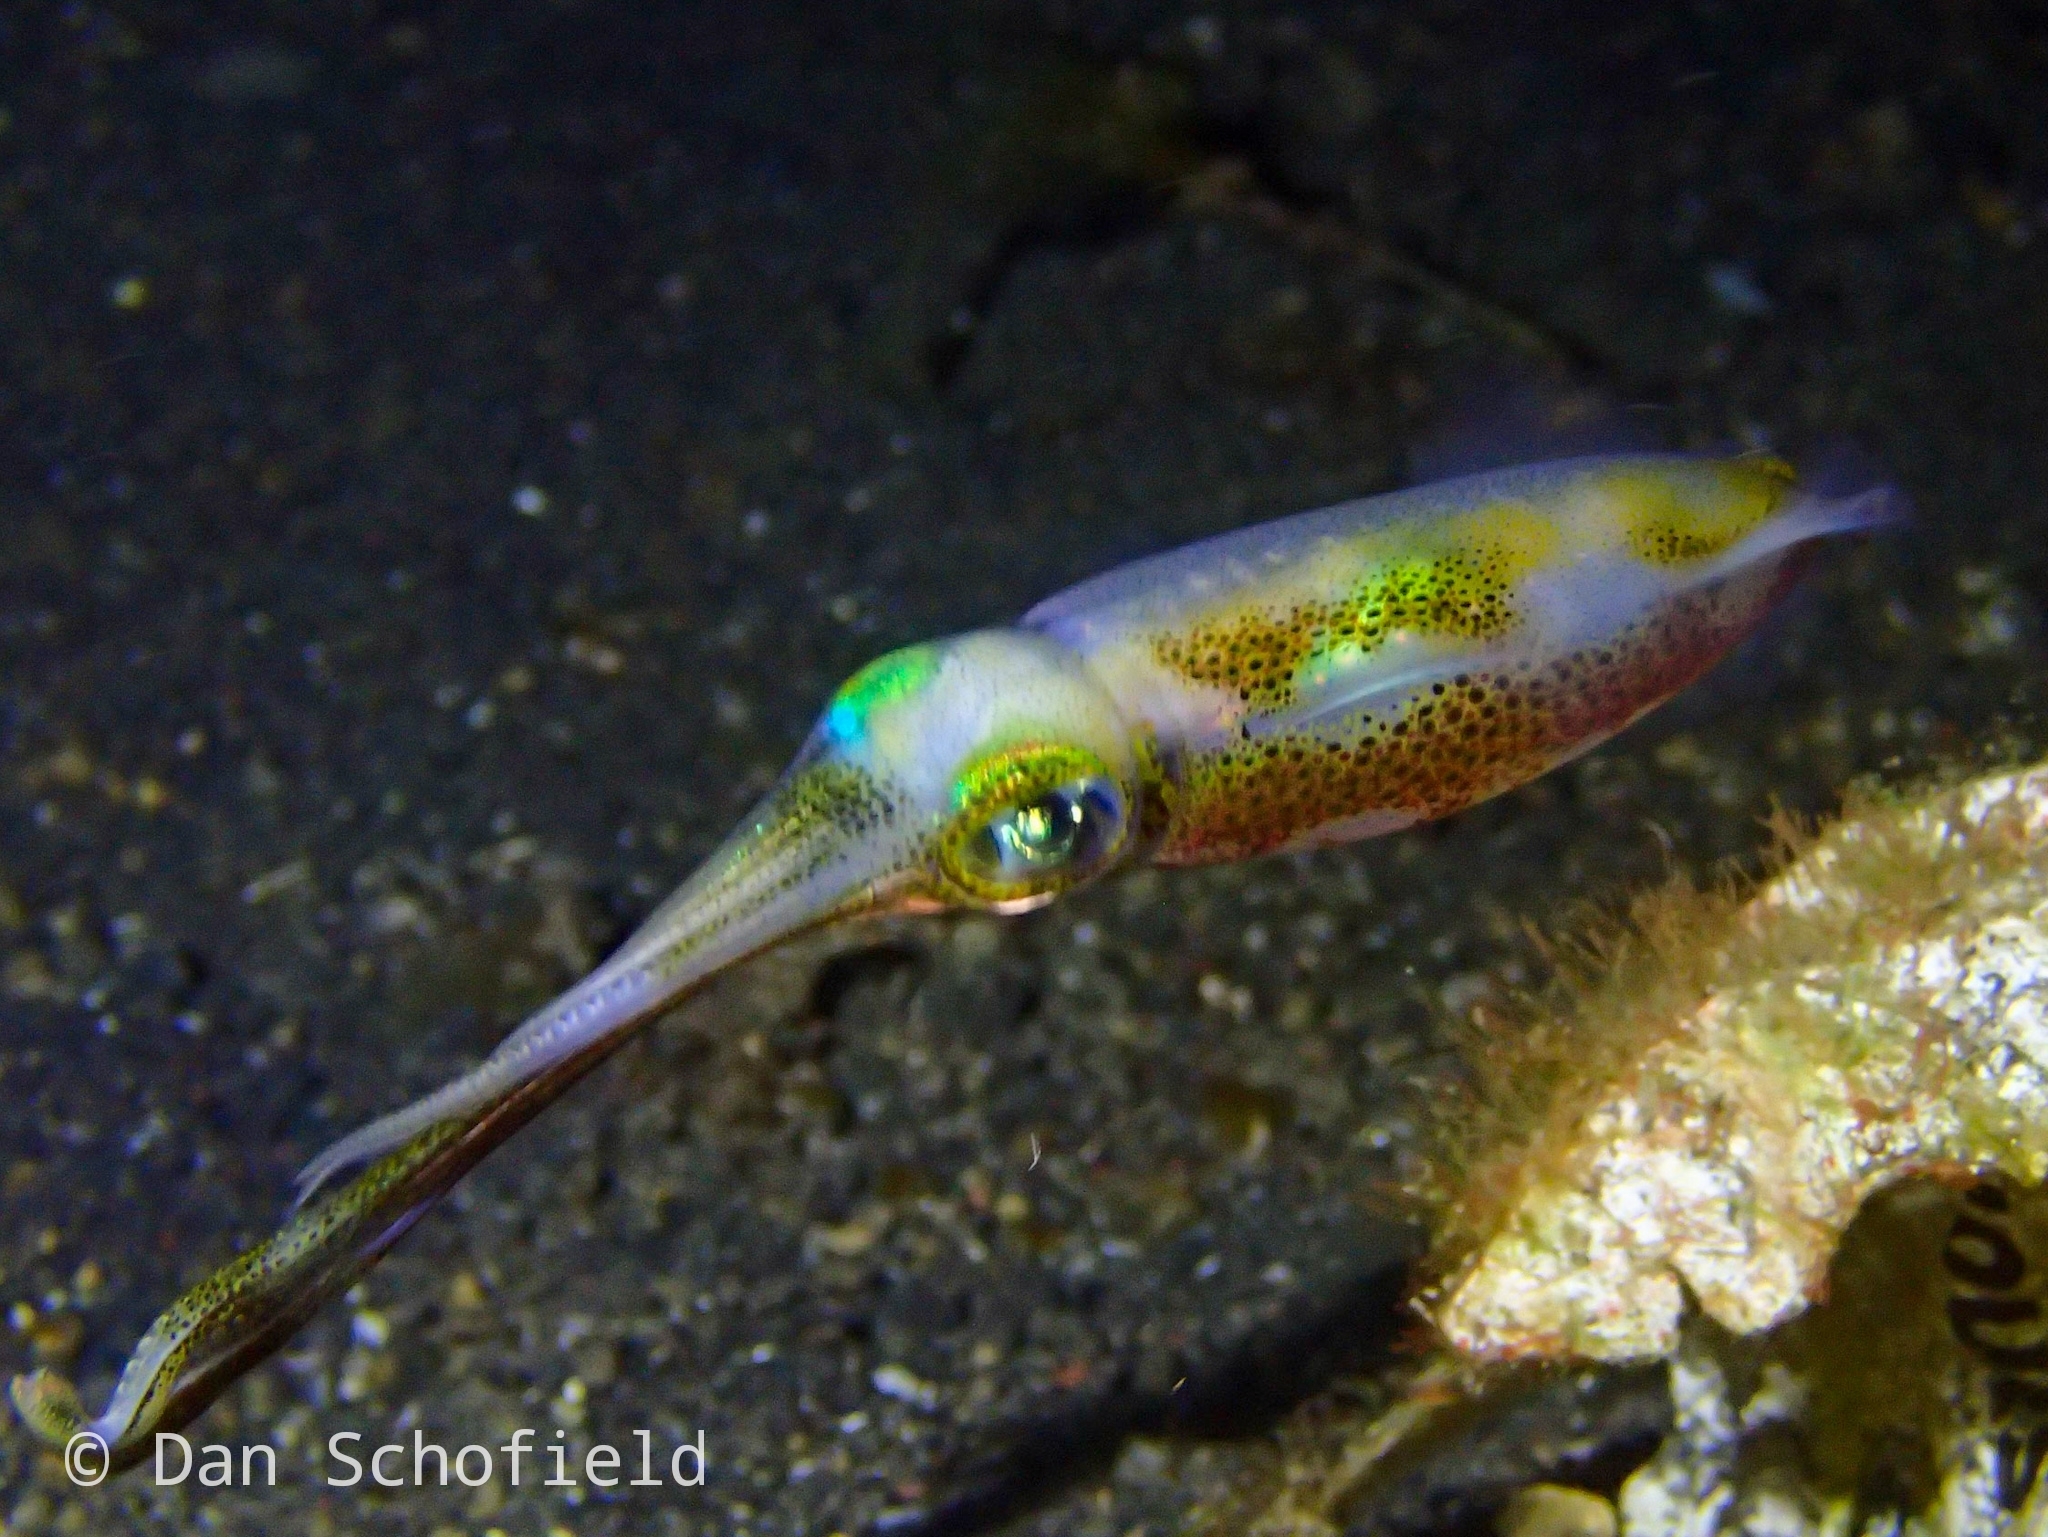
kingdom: Animalia
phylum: Mollusca
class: Cephalopoda
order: Myopsida
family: Loliginidae
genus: Sepioteuthis
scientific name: Sepioteuthis lessoniana
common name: Bigfin reef squid
